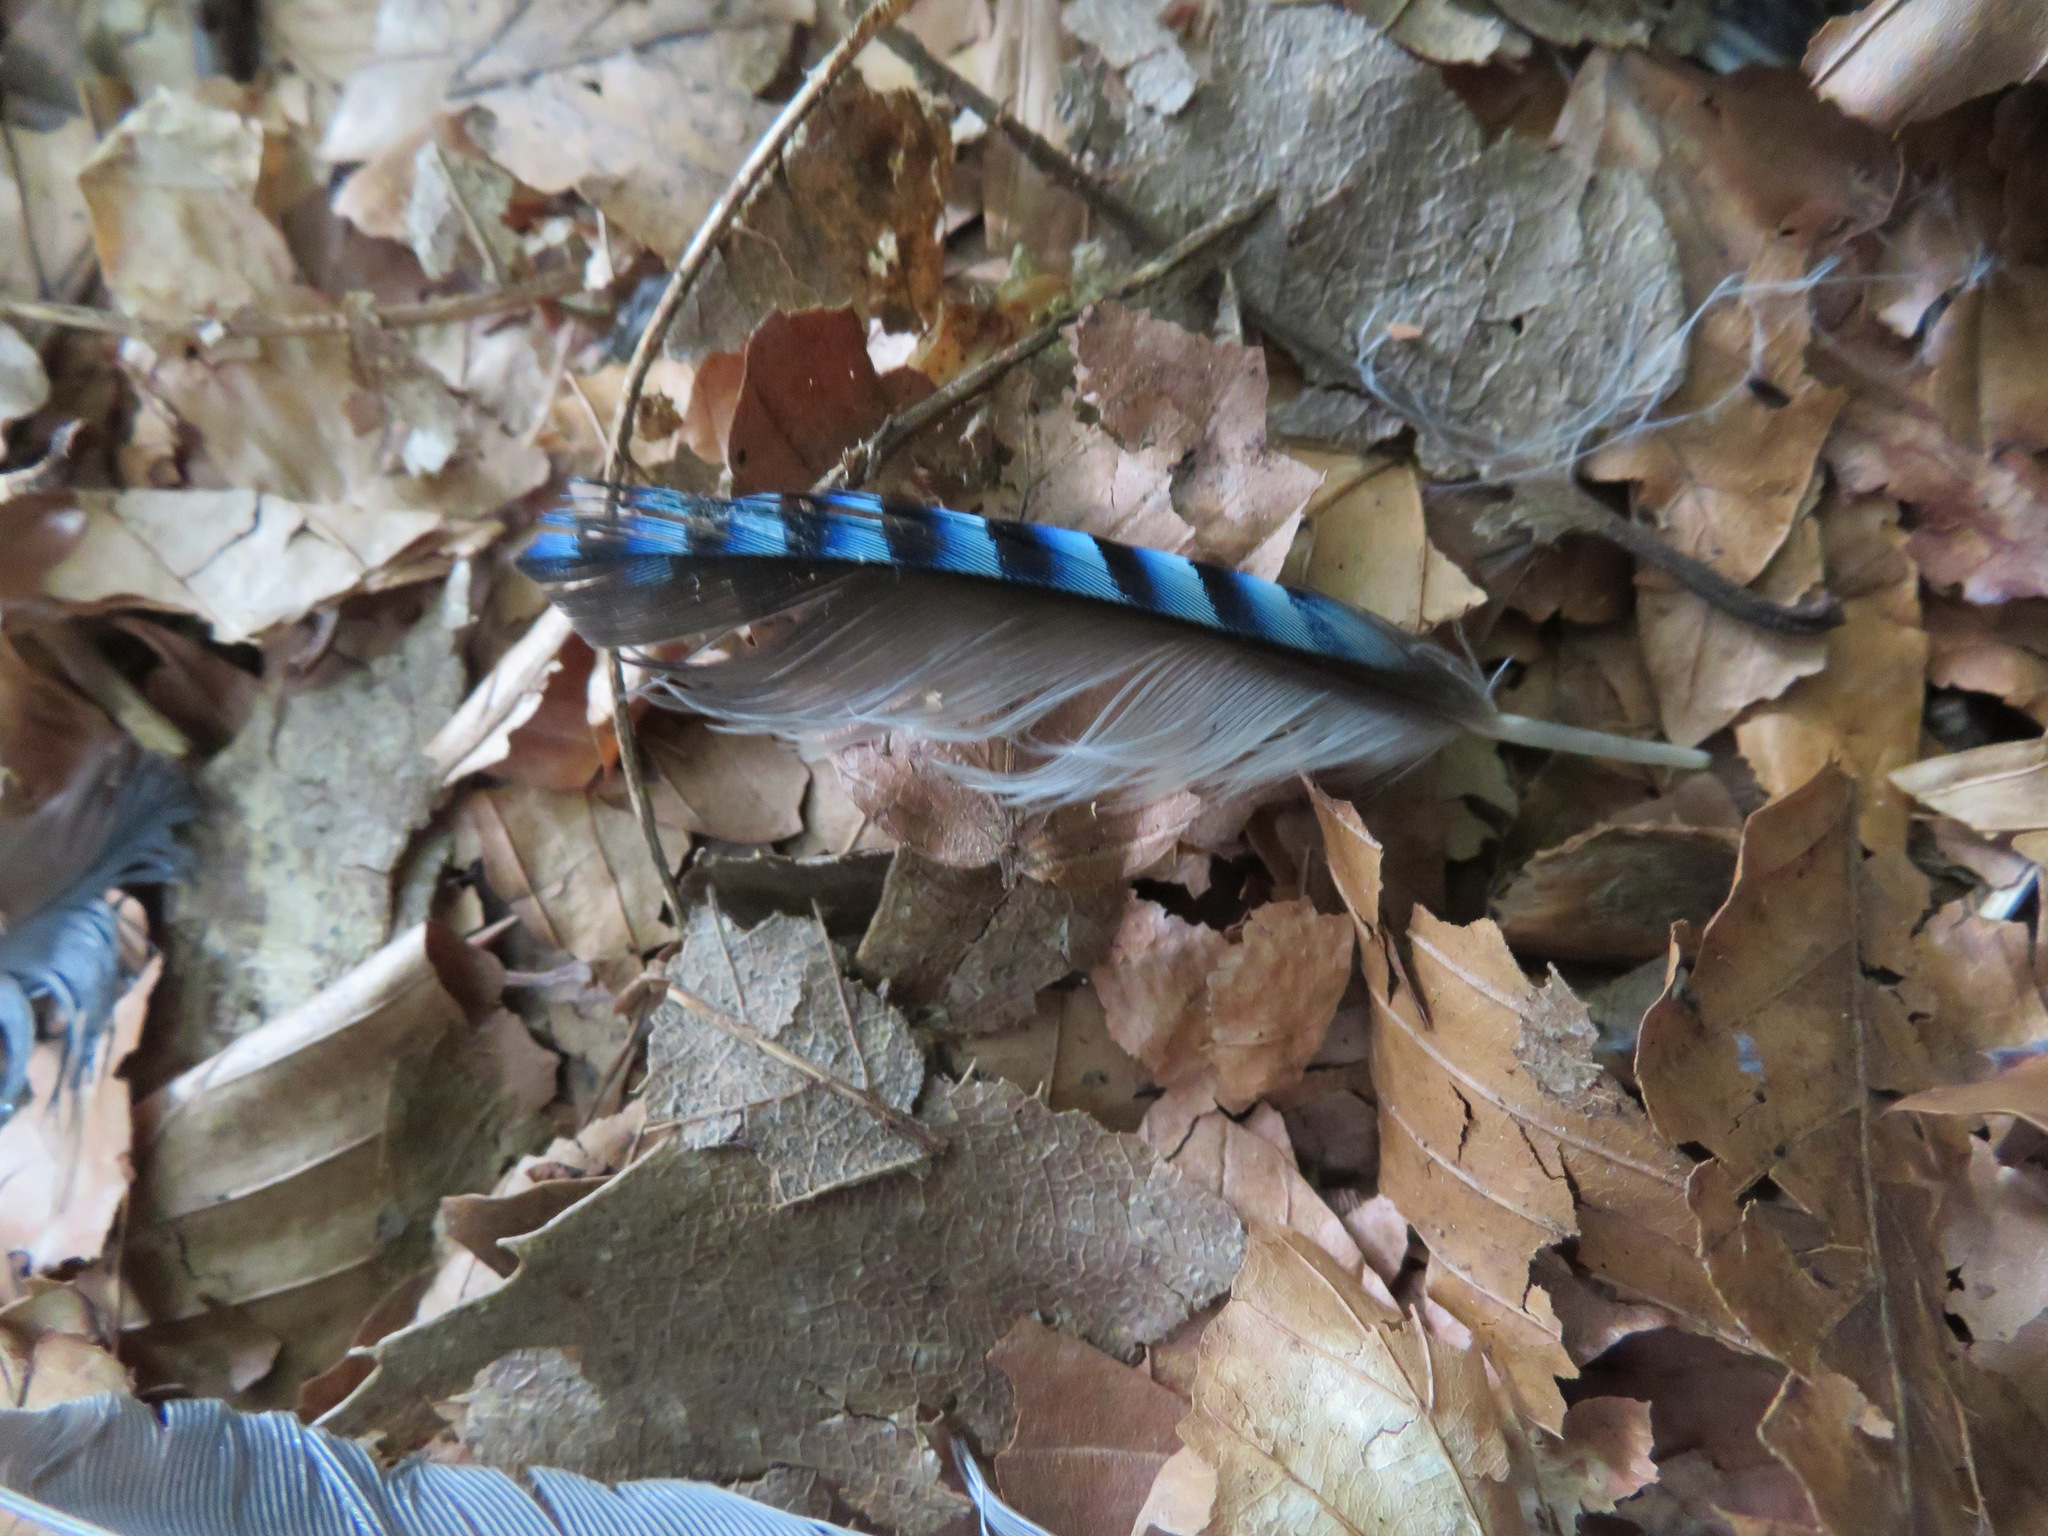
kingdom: Animalia
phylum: Chordata
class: Aves
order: Passeriformes
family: Corvidae
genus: Garrulus
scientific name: Garrulus glandarius
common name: Eurasian jay
